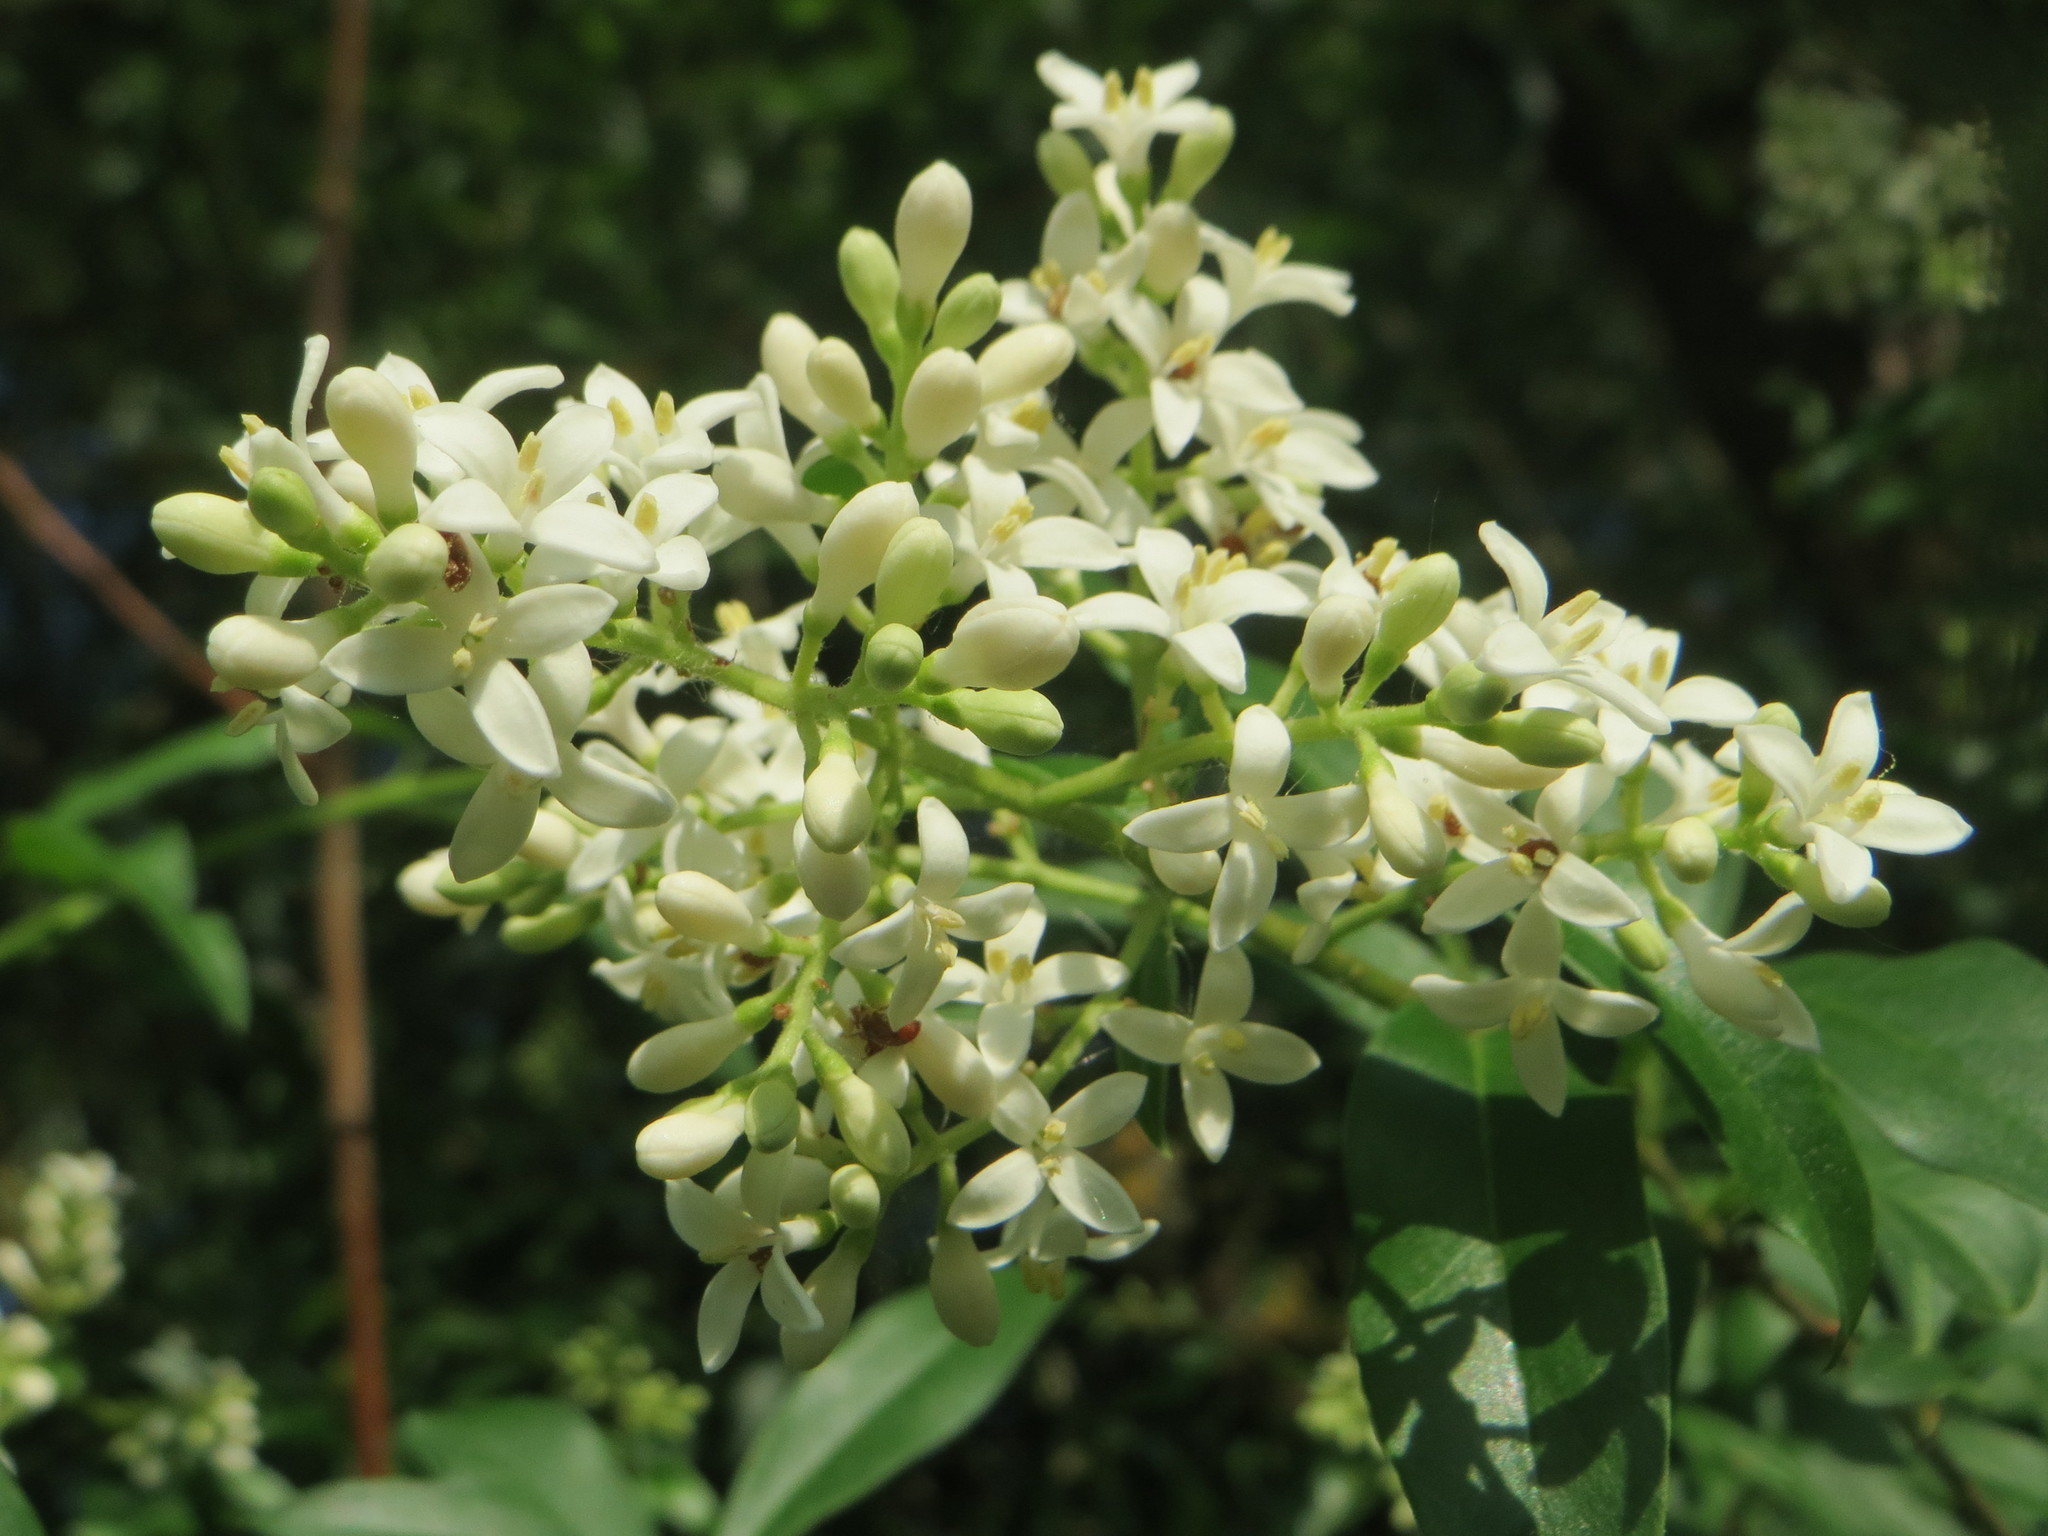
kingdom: Plantae
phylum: Tracheophyta
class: Magnoliopsida
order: Lamiales
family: Oleaceae
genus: Ligustrum
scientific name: Ligustrum vulgare
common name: Wild privet
